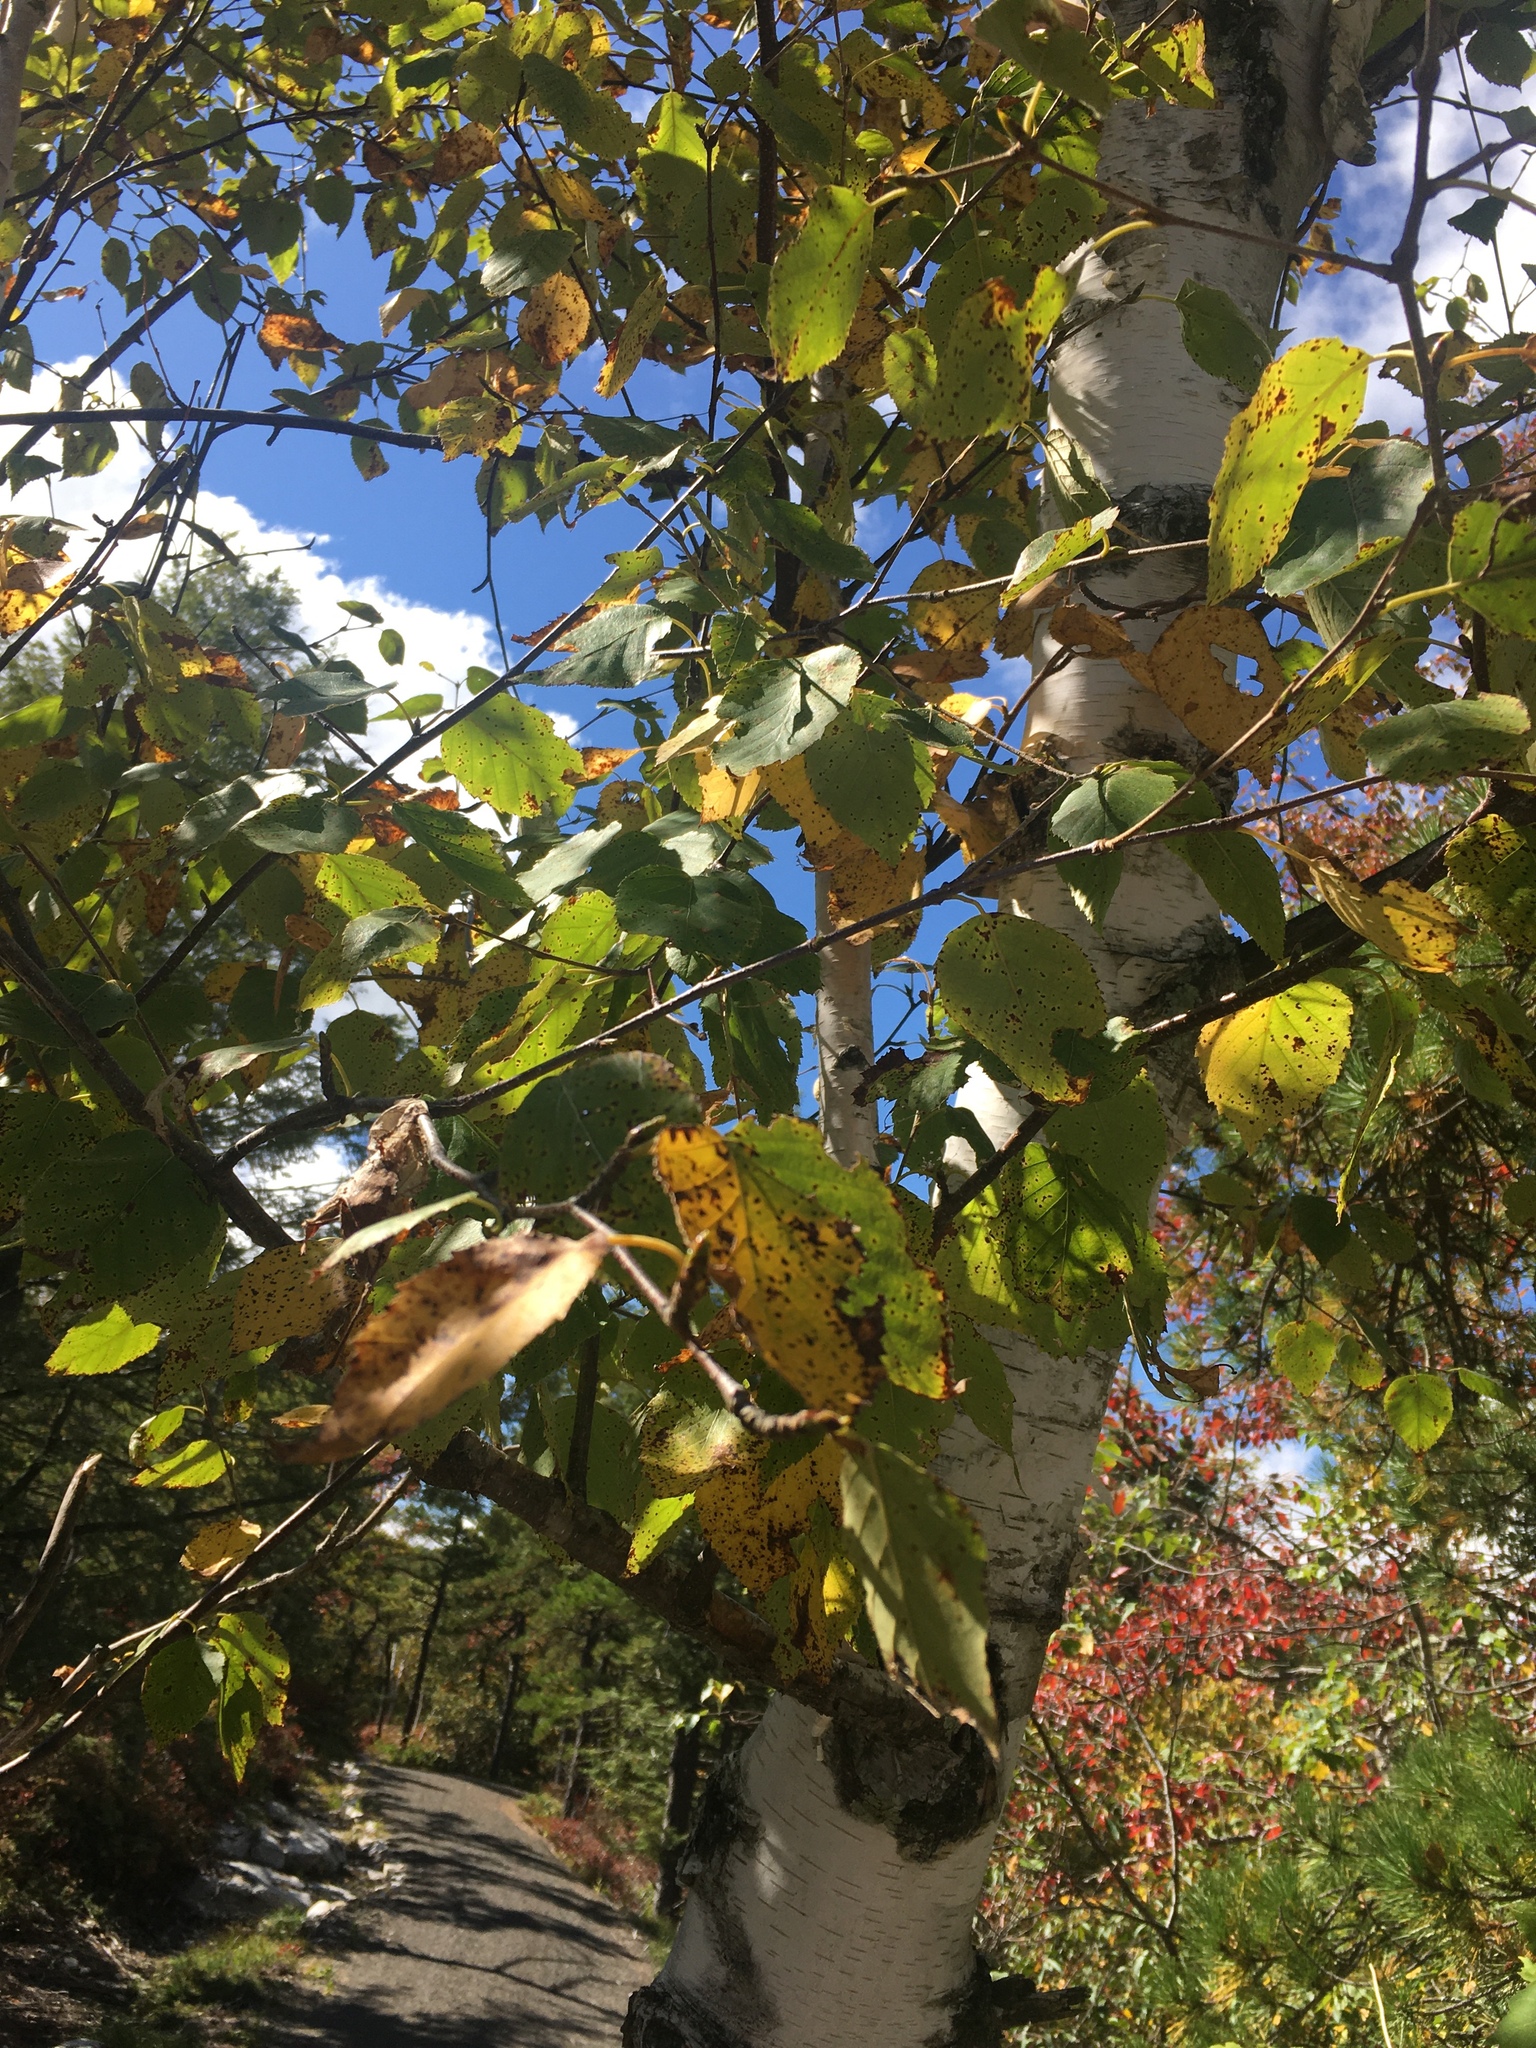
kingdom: Plantae
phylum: Tracheophyta
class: Magnoliopsida
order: Fagales
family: Betulaceae
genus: Betula
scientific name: Betula papyrifera
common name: Paper birch
